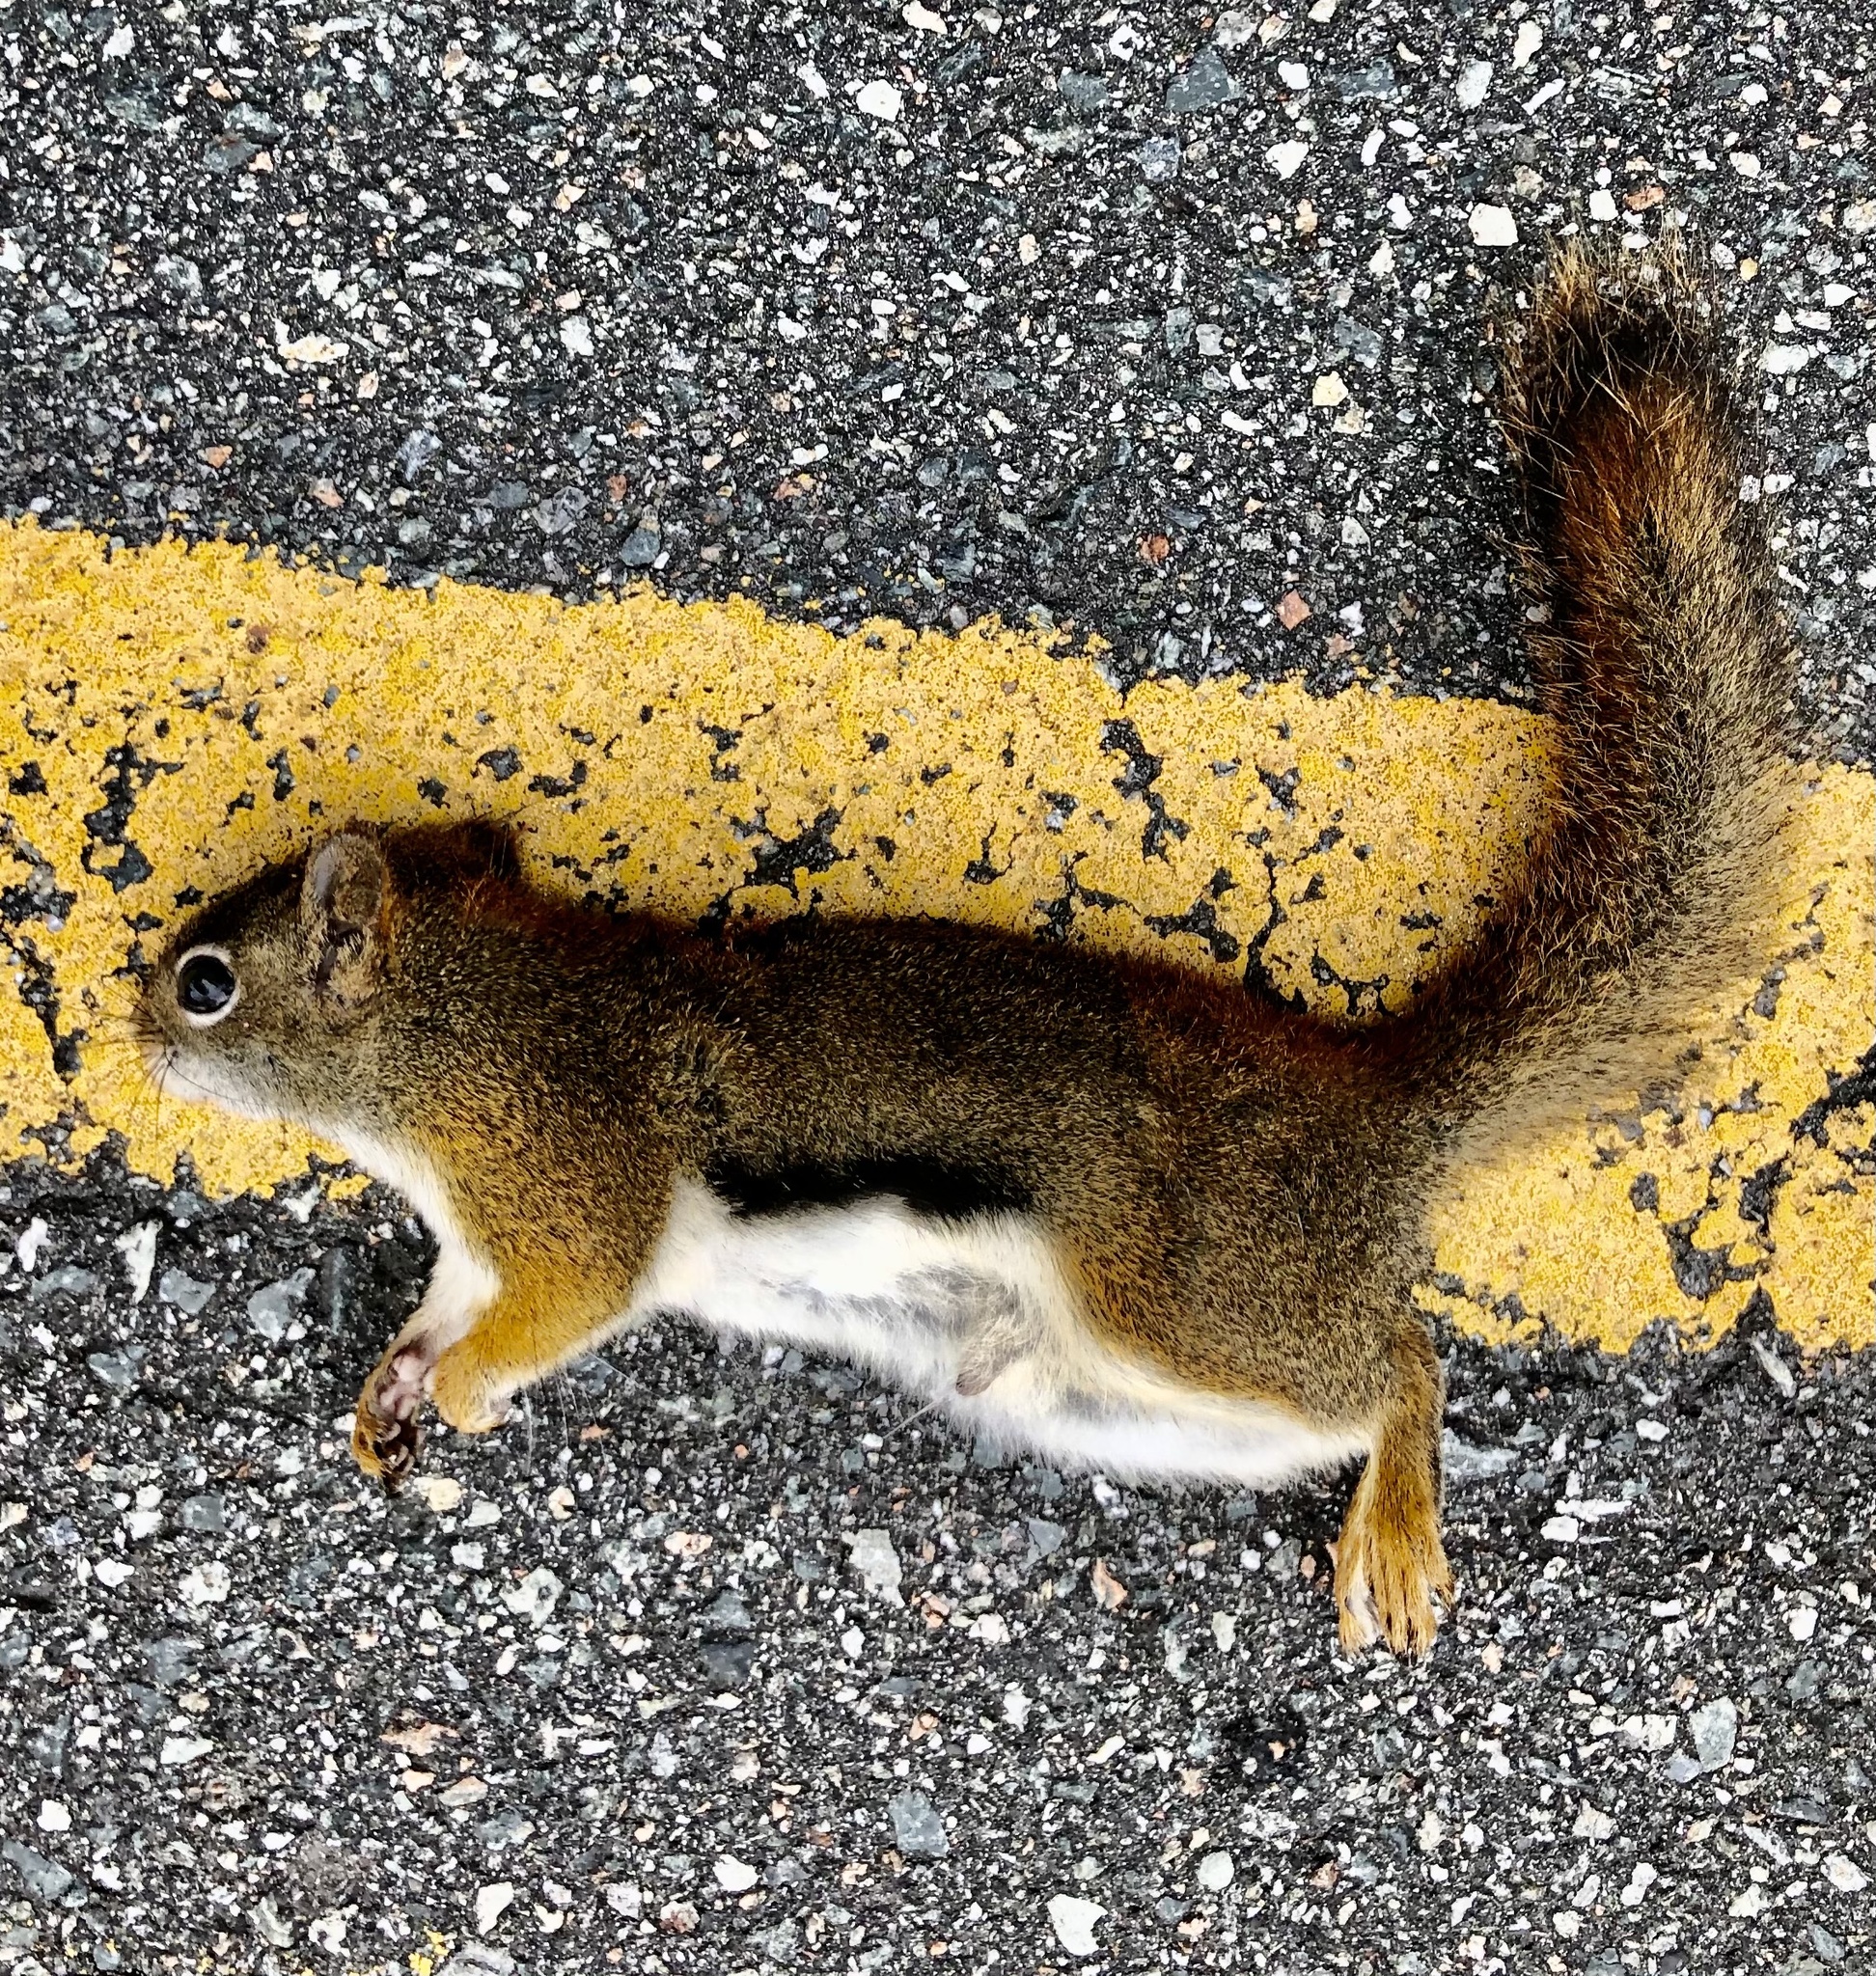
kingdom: Animalia
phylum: Chordata
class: Mammalia
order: Rodentia
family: Sciuridae
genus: Tamiasciurus
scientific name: Tamiasciurus hudsonicus
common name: Red squirrel
